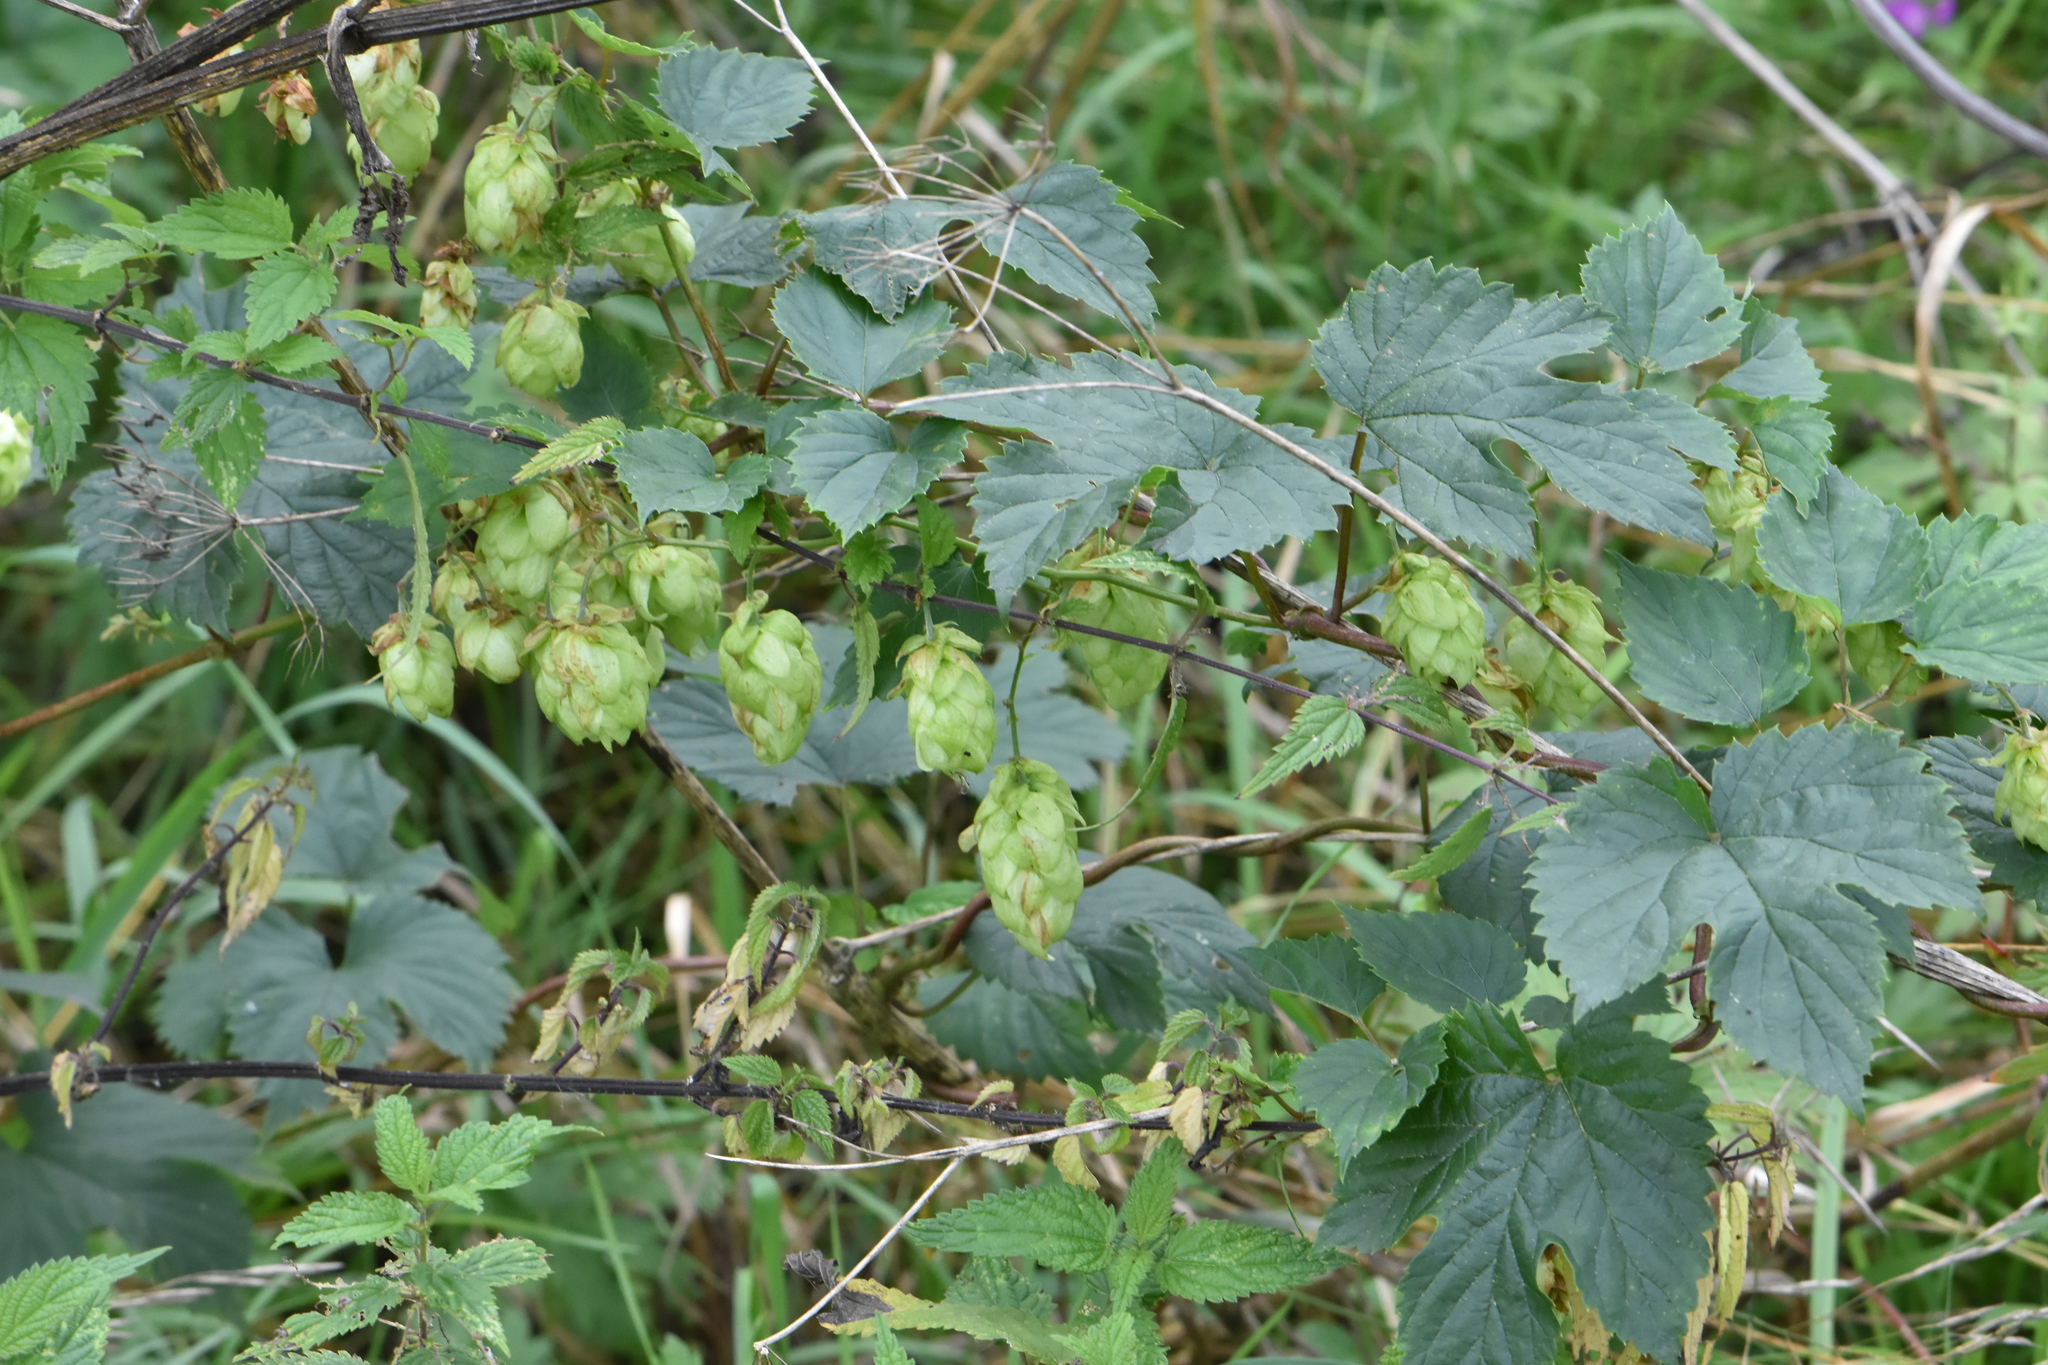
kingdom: Plantae
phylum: Tracheophyta
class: Magnoliopsida
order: Rosales
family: Cannabaceae
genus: Humulus
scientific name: Humulus lupulus
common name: Hop
